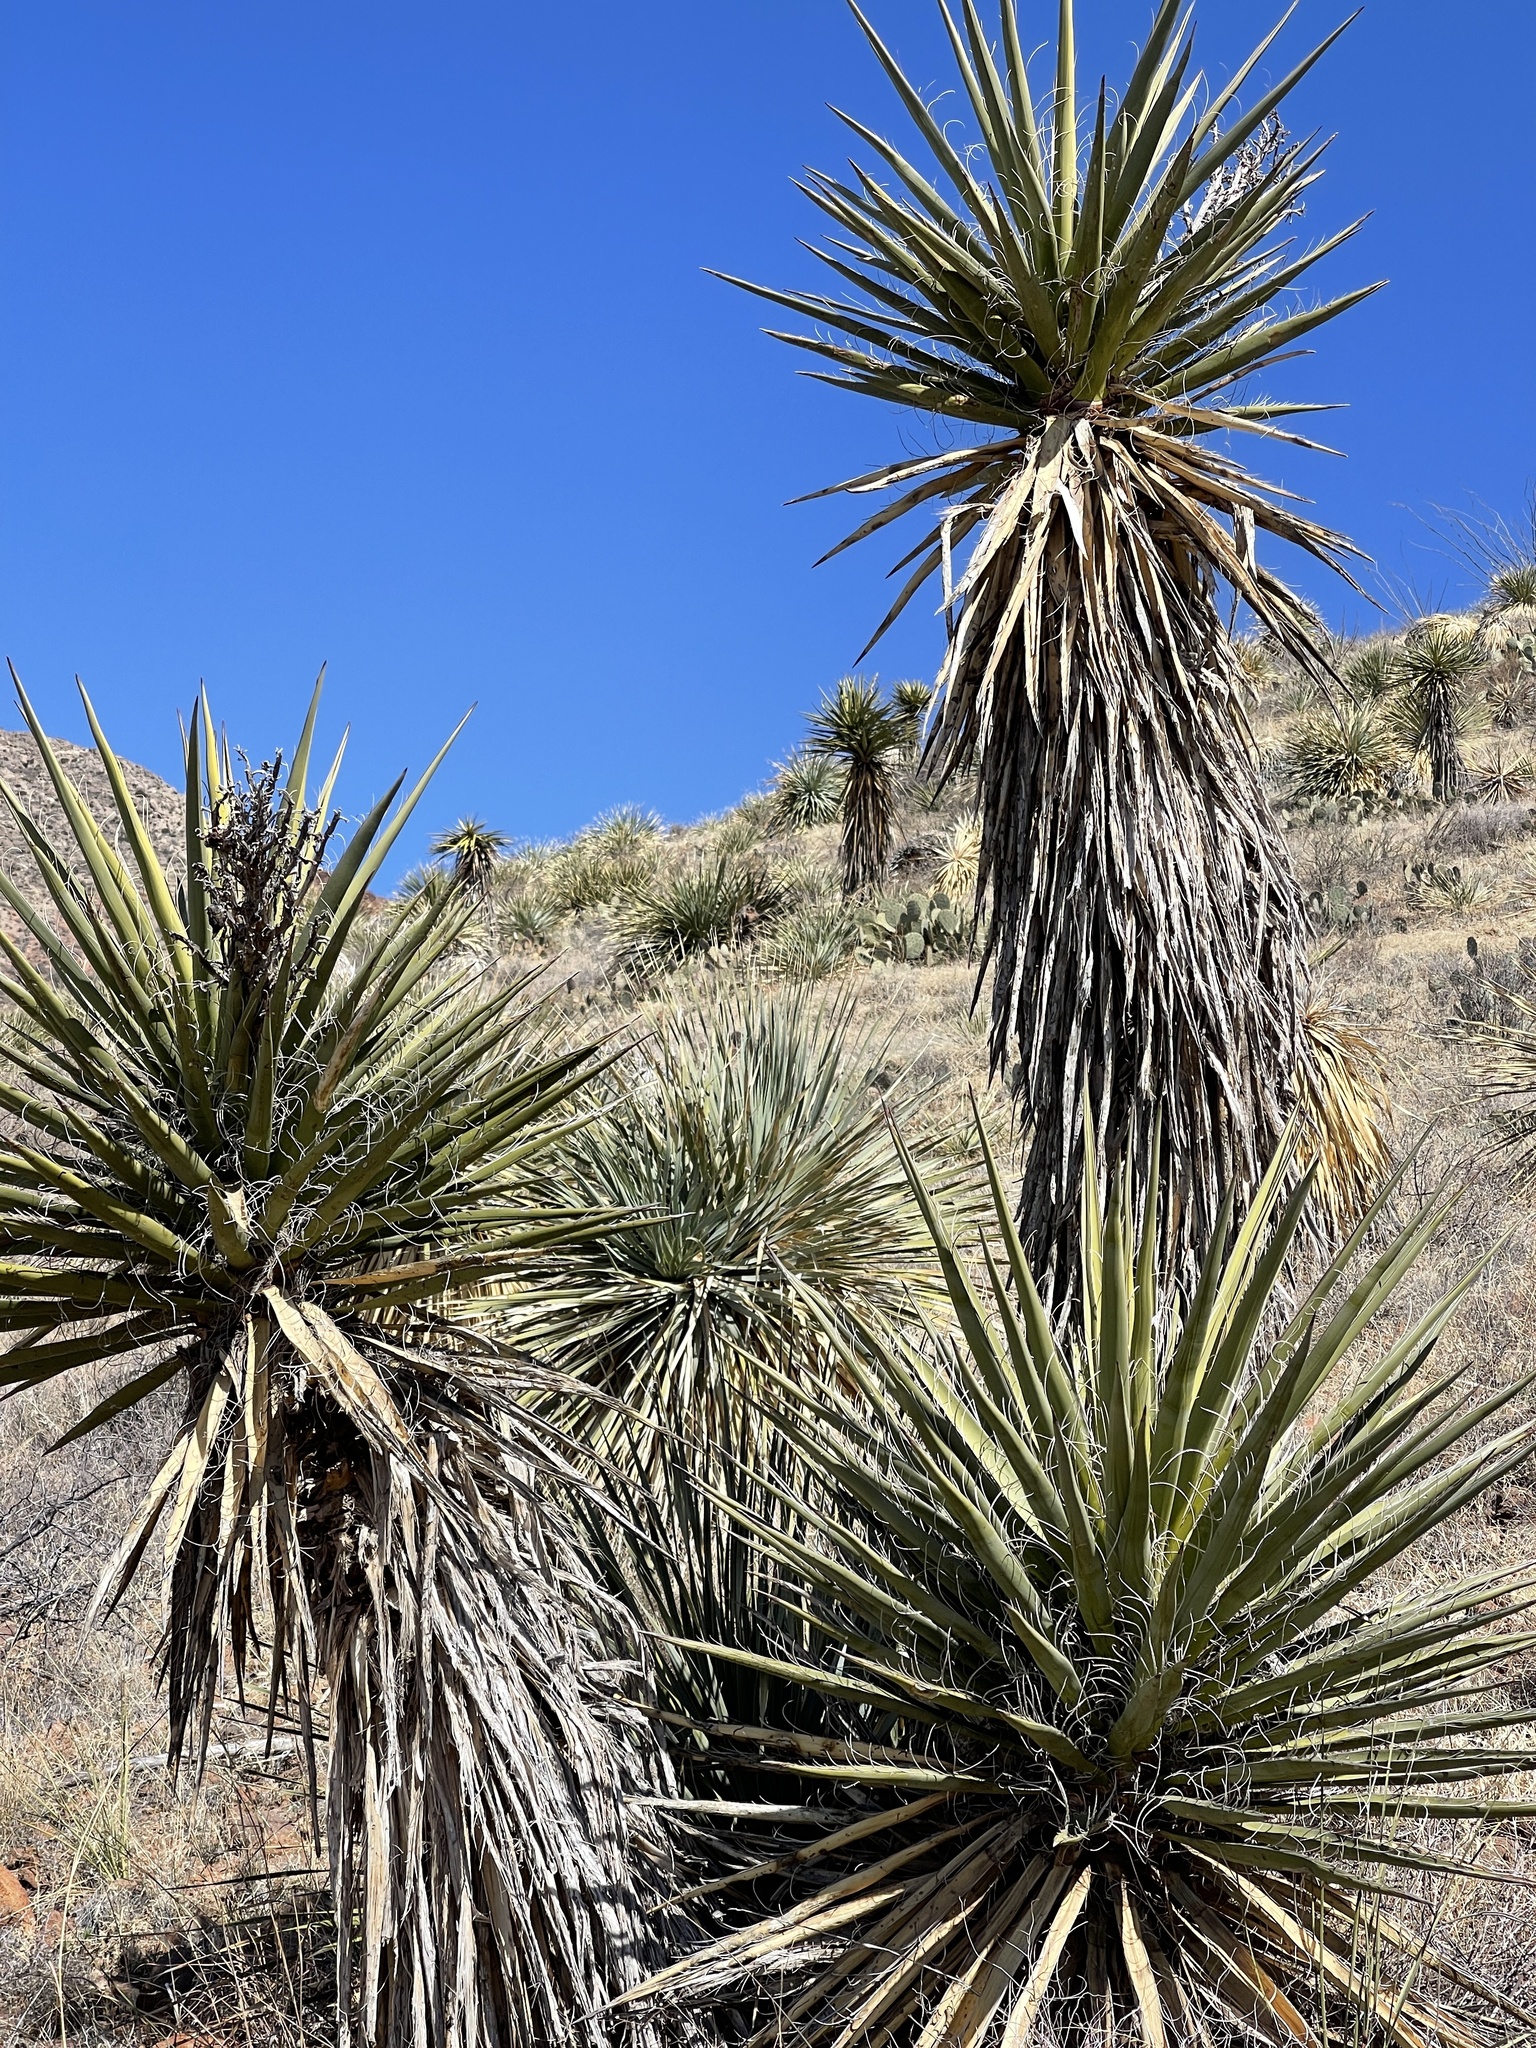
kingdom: Plantae
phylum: Tracheophyta
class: Liliopsida
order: Asparagales
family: Asparagaceae
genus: Yucca
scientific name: Yucca treculiana
